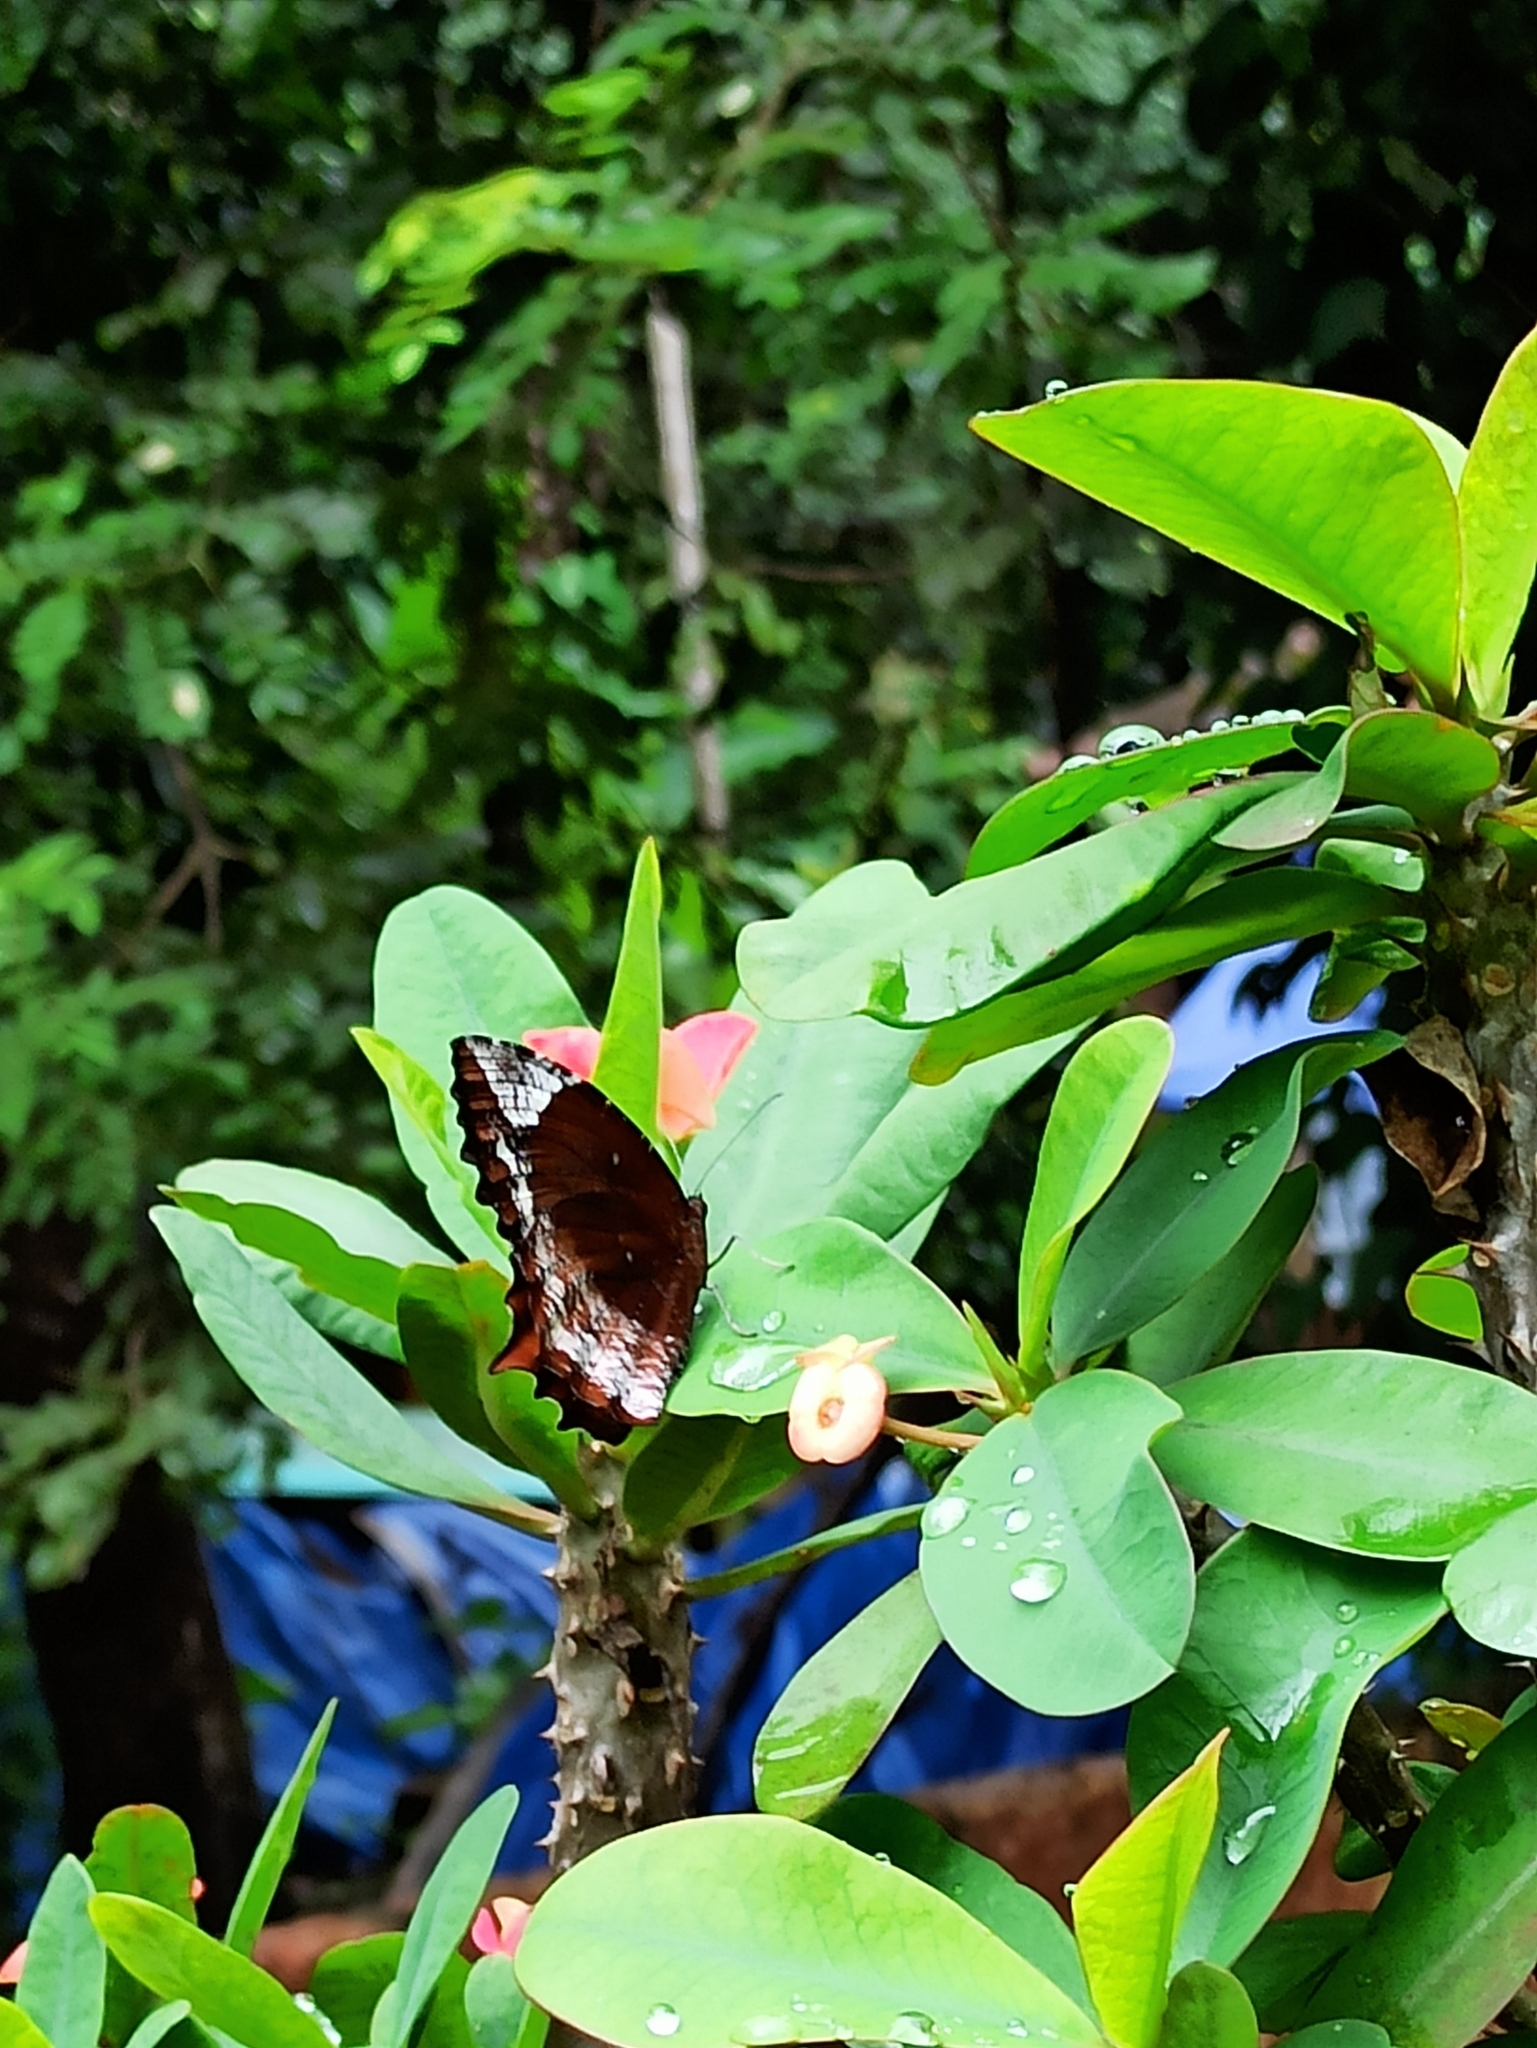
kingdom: Animalia
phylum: Arthropoda
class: Insecta
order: Lepidoptera
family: Nymphalidae
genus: Elymnias
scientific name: Elymnias caudata
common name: Tailed palmfly
